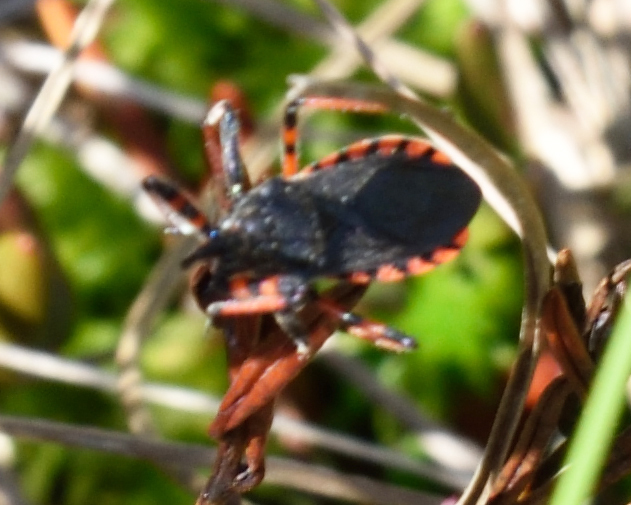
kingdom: Animalia
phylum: Arthropoda
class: Insecta
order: Hemiptera
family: Reduviidae
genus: Rhynocoris
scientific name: Rhynocoris annulatus
